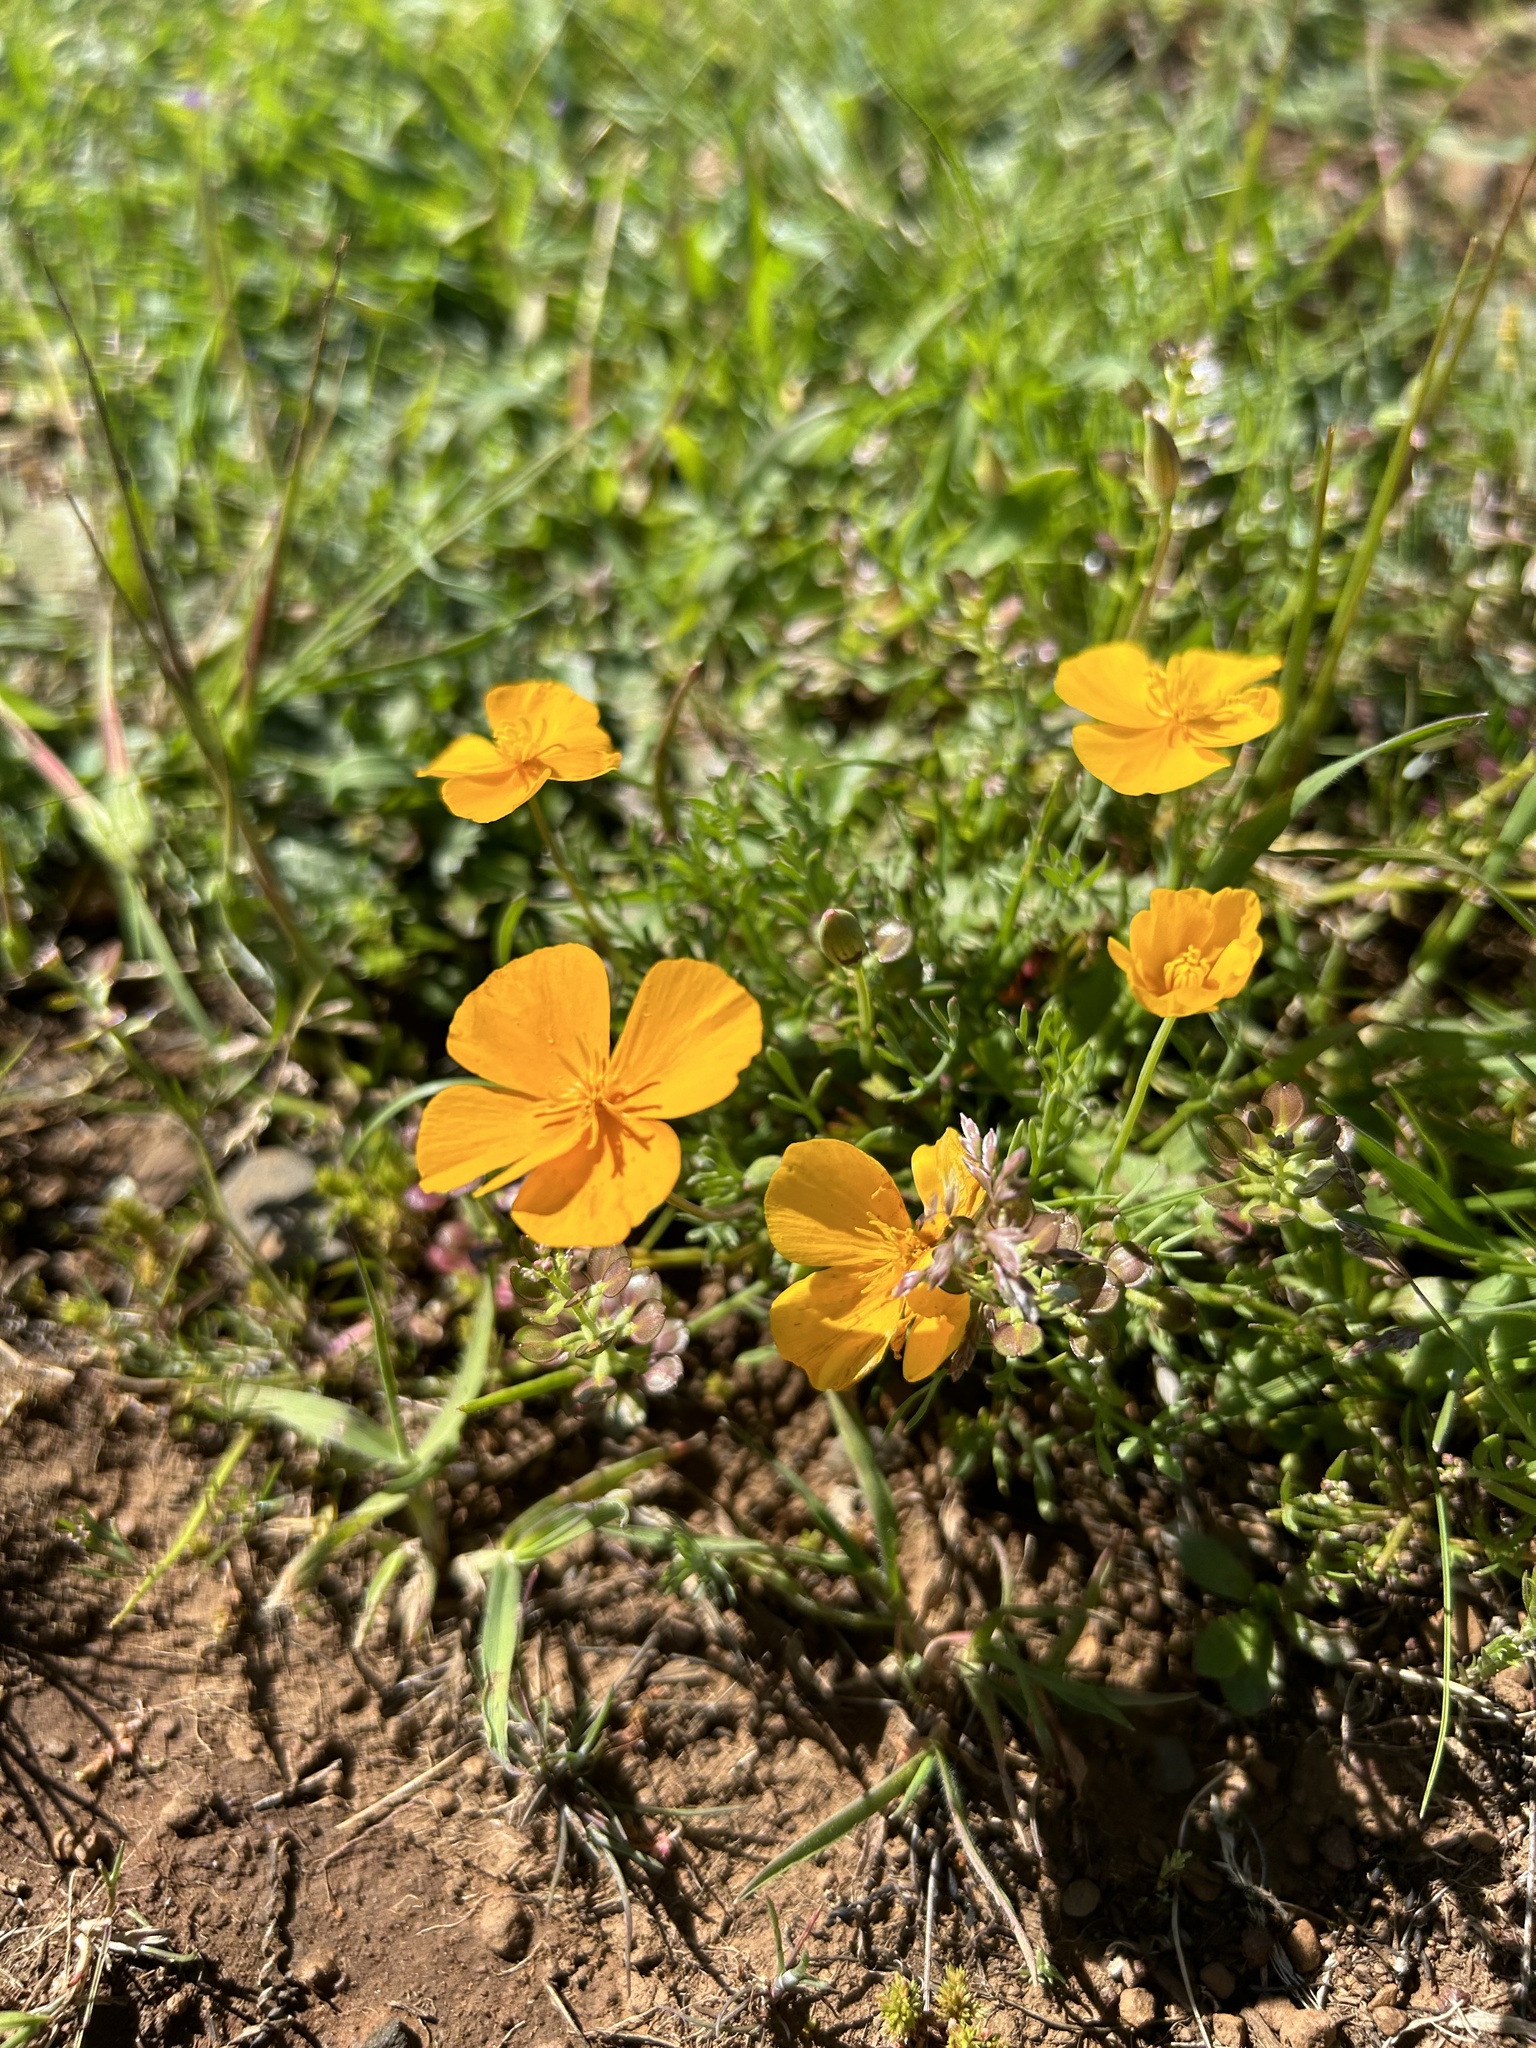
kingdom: Plantae
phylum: Tracheophyta
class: Magnoliopsida
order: Ranunculales
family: Papaveraceae
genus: Eschscholzia
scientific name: Eschscholzia lobbii
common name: Frying-pans
